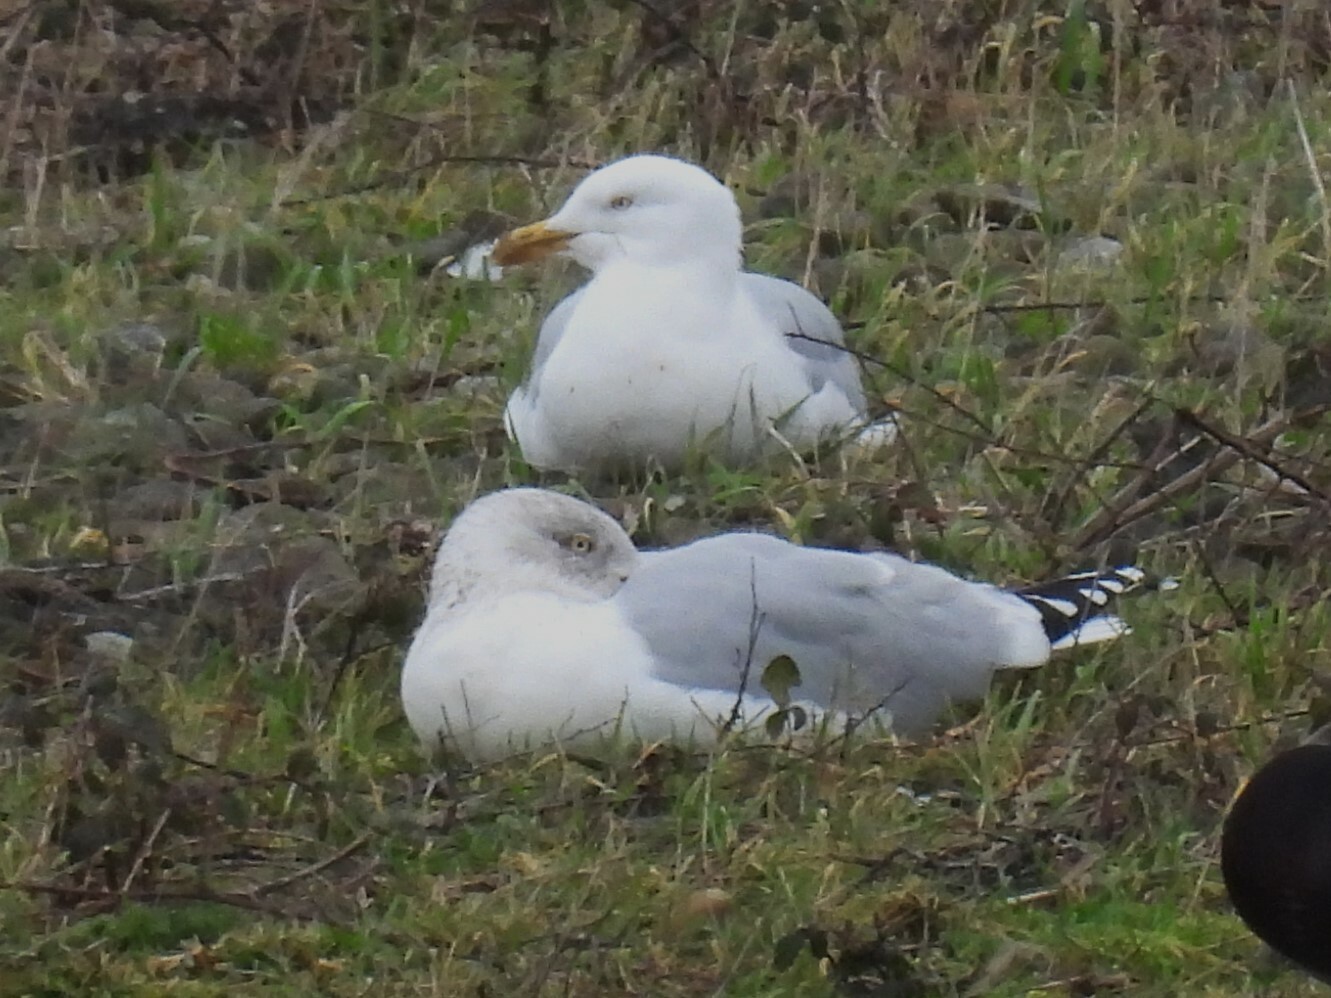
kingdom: Animalia
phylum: Chordata
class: Aves
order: Charadriiformes
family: Laridae
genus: Larus
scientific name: Larus argentatus
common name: Herring gull
